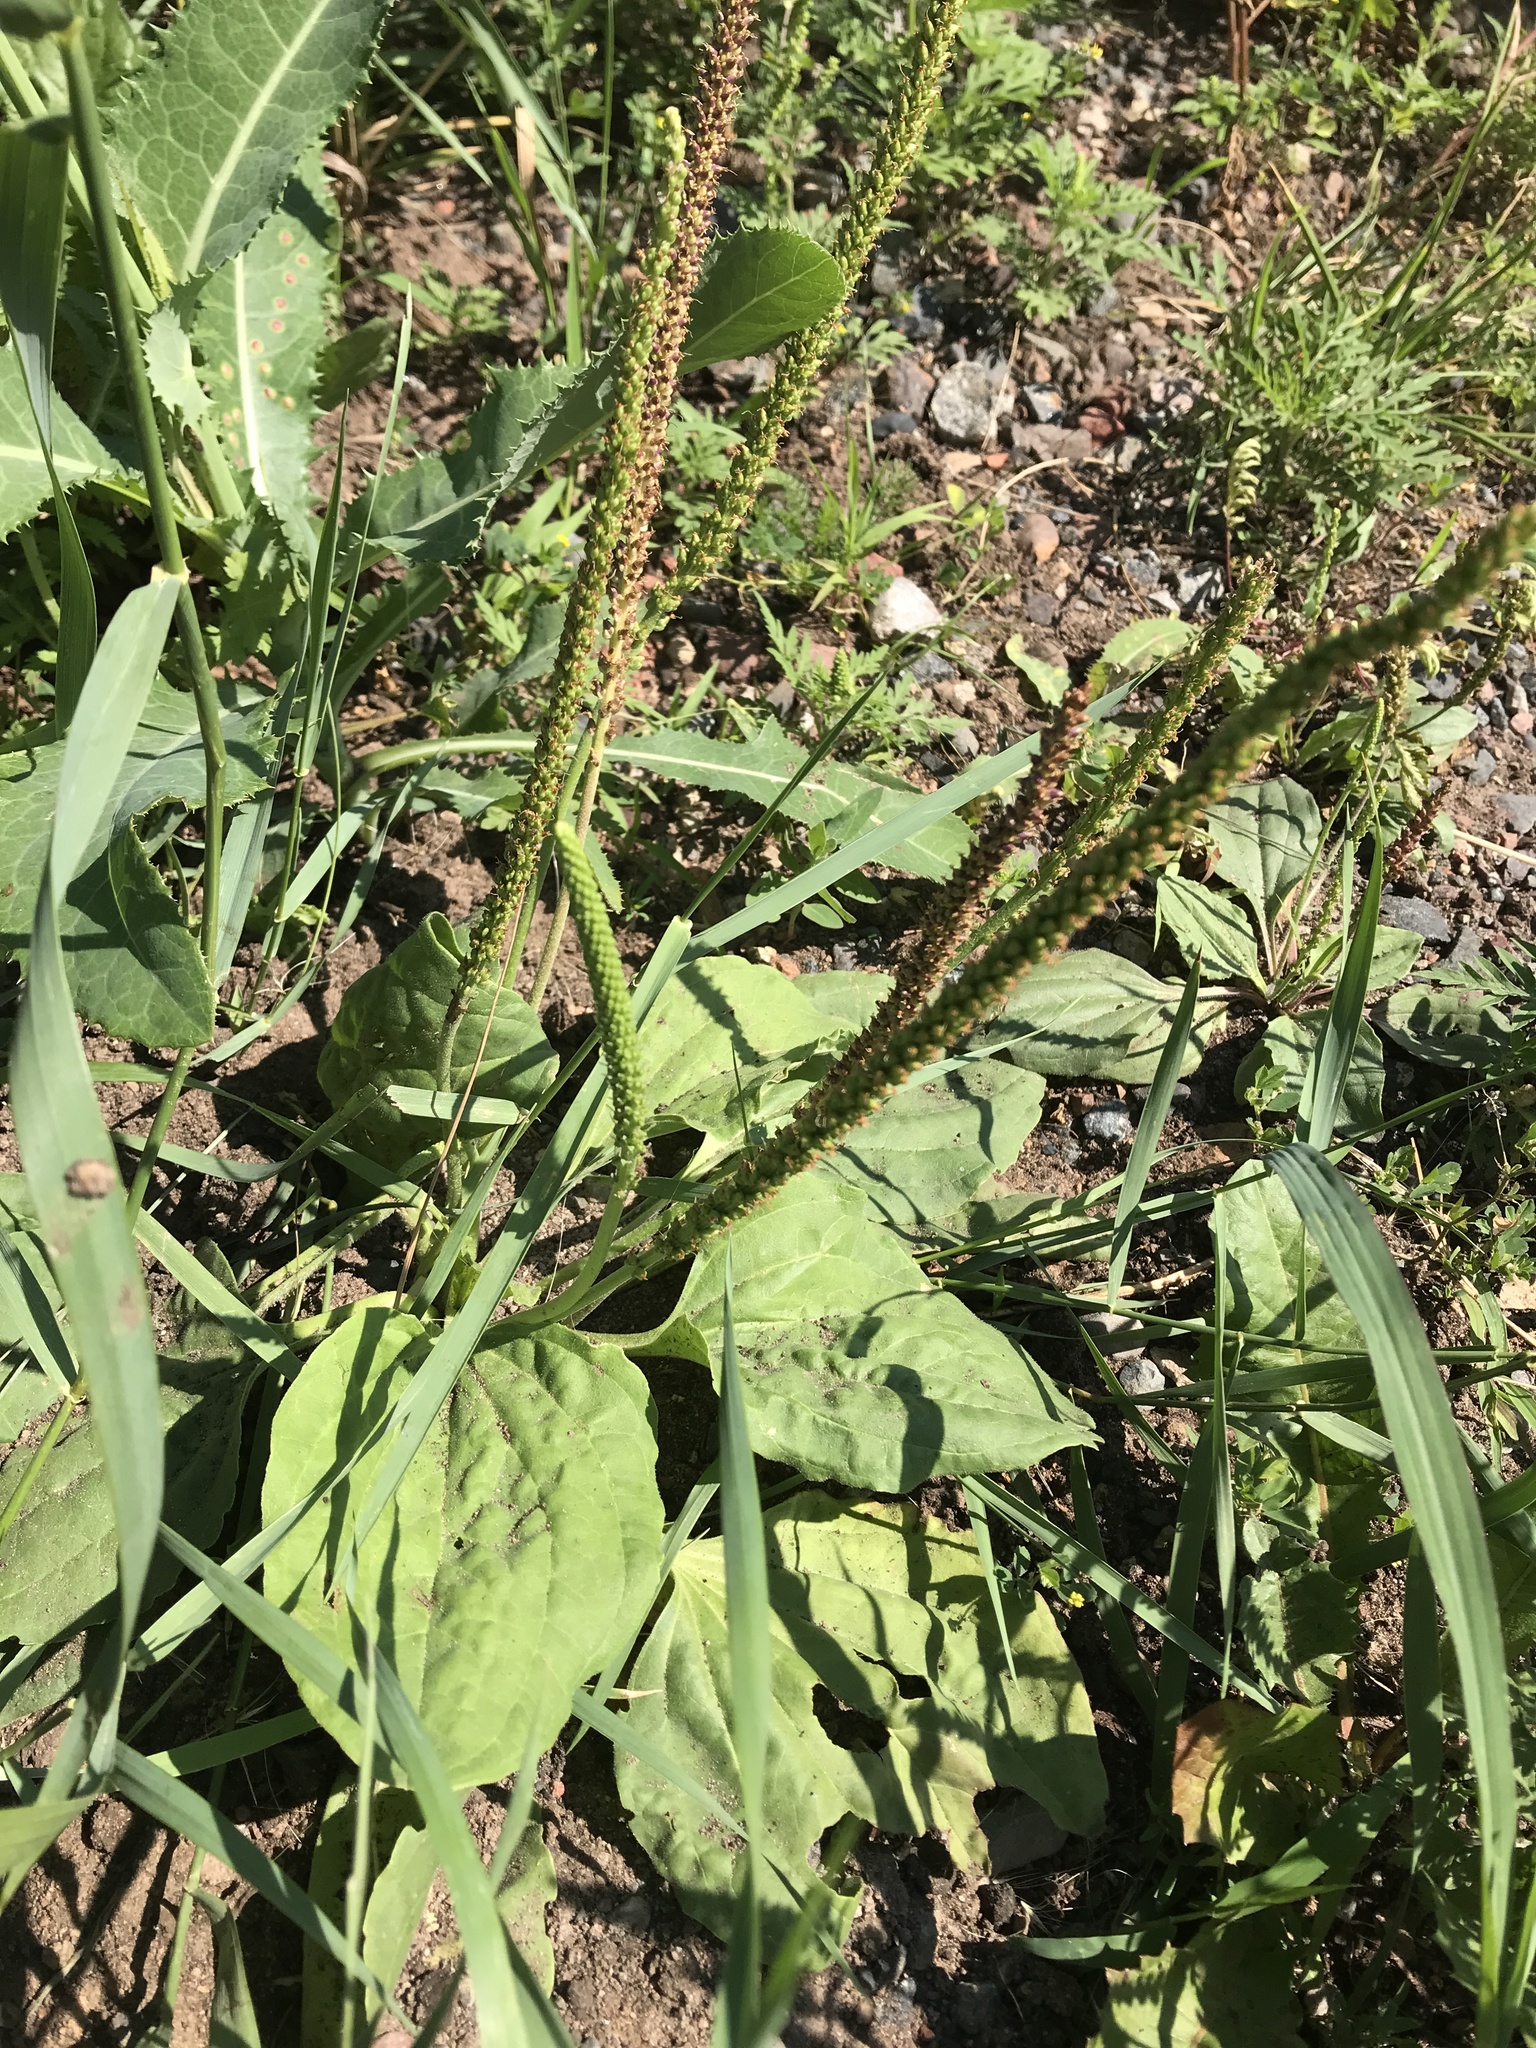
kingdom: Plantae
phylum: Tracheophyta
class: Magnoliopsida
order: Lamiales
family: Plantaginaceae
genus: Plantago
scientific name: Plantago major
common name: Common plantain
